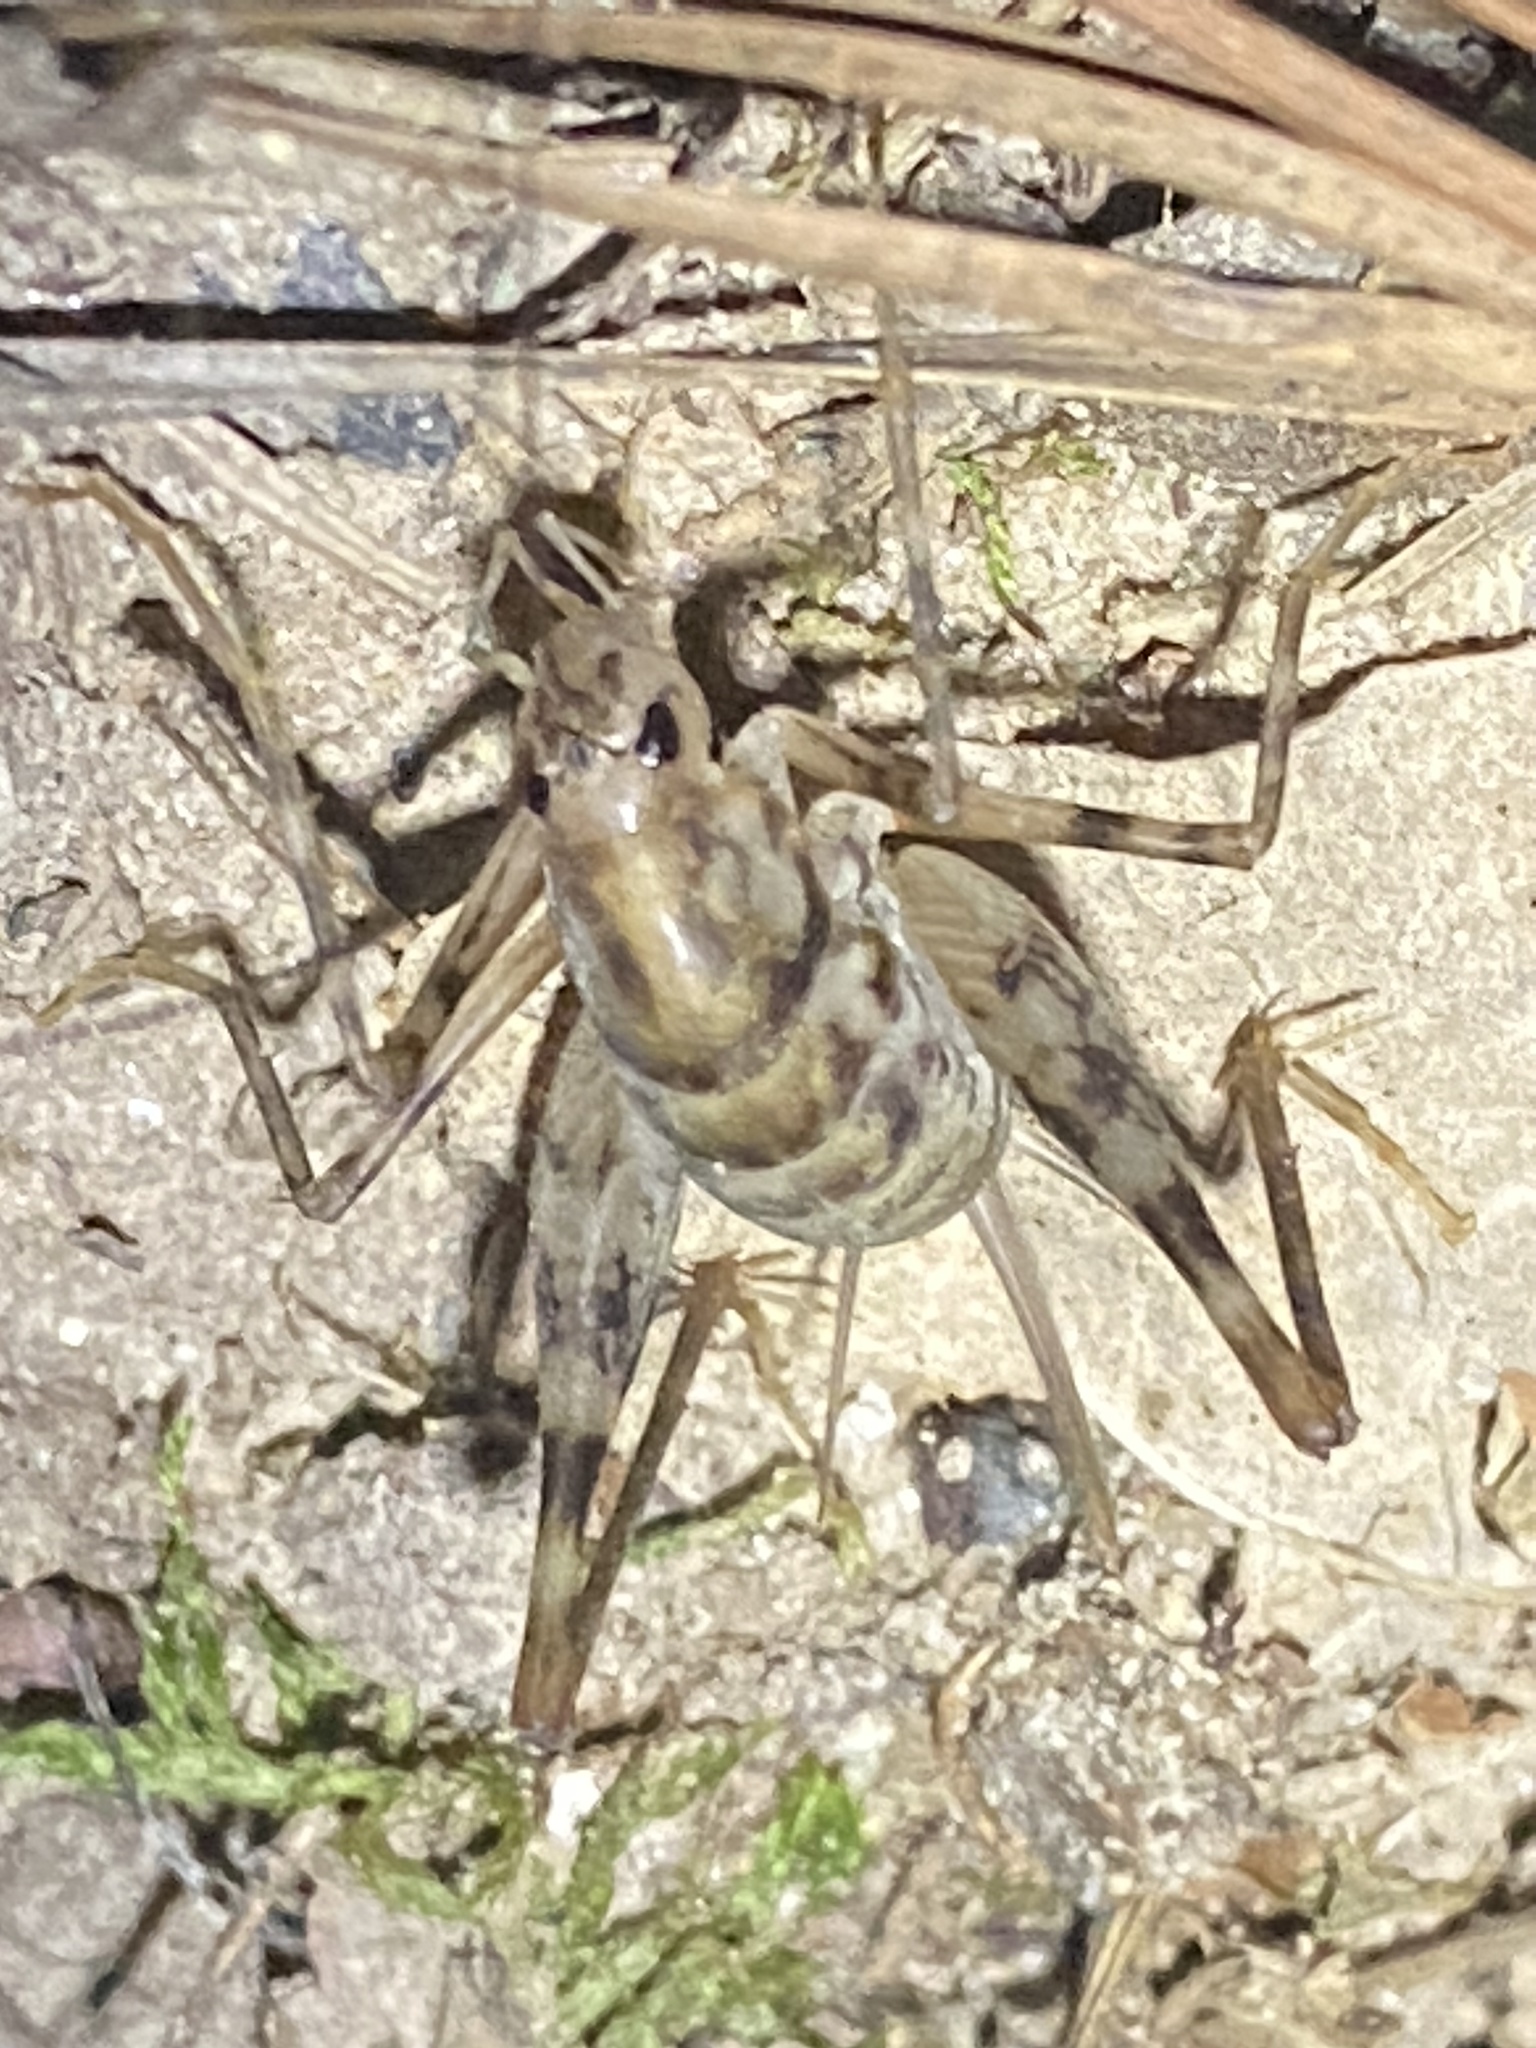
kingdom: Animalia
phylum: Arthropoda
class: Insecta
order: Orthoptera
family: Rhaphidophoridae
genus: Tachycines
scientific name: Tachycines asynamorus
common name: Greenhouse camel cricket
